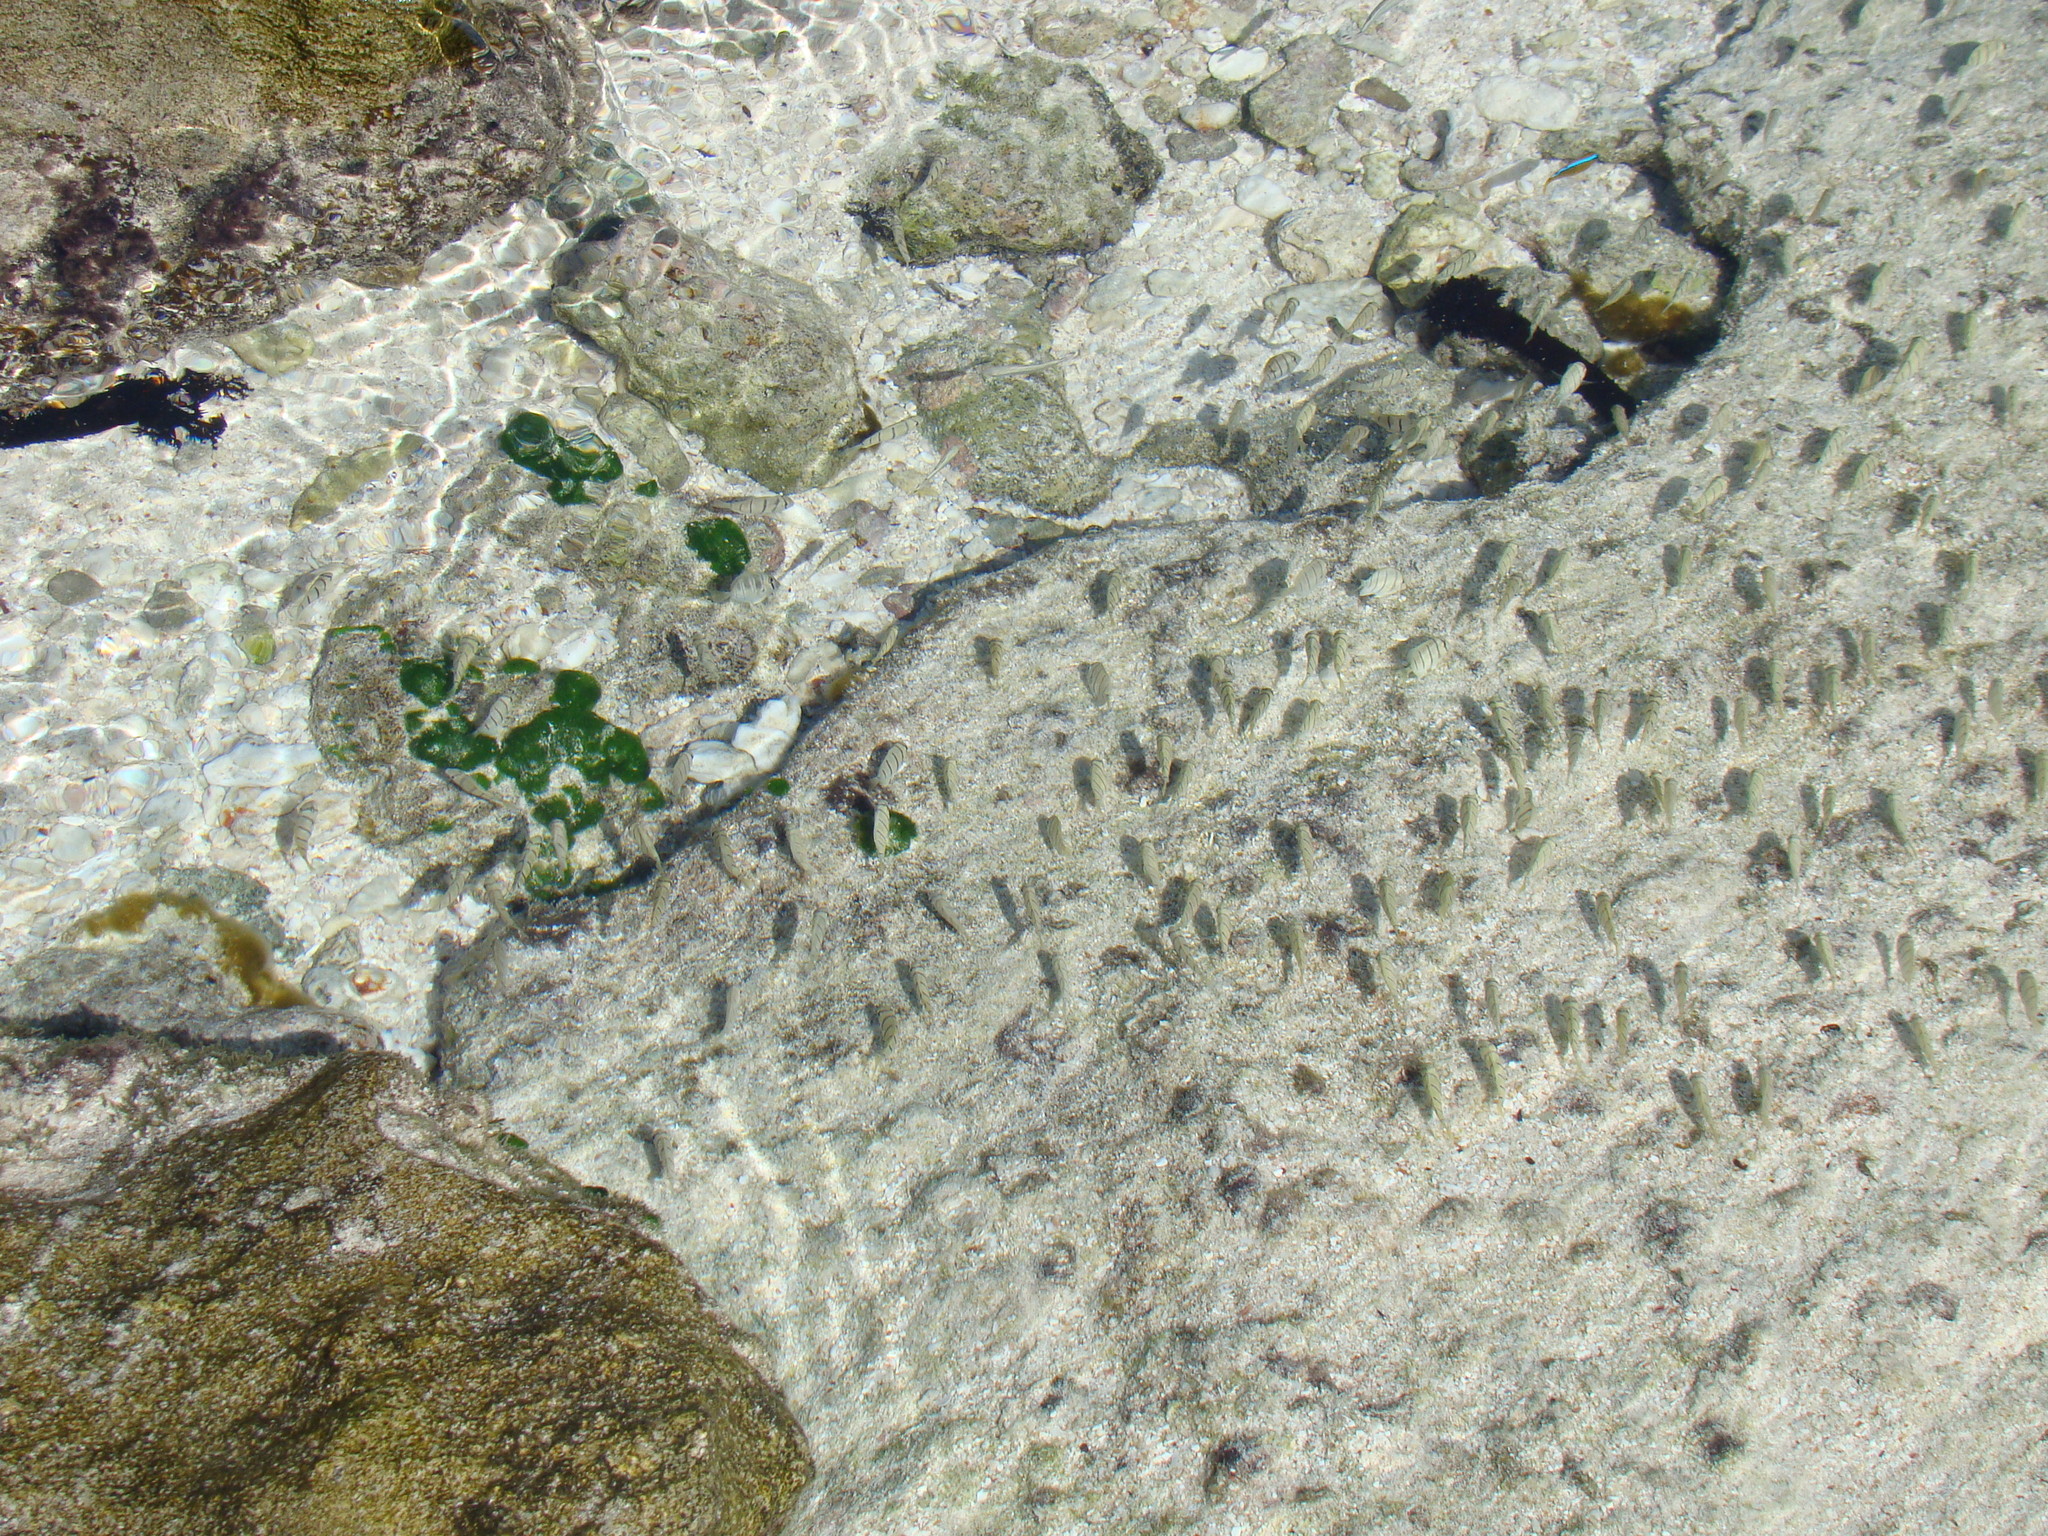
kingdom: Animalia
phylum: Chordata
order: Perciformes
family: Acanthuridae
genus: Acanthurus
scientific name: Acanthurus triostegus
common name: Convict surgeonfish
